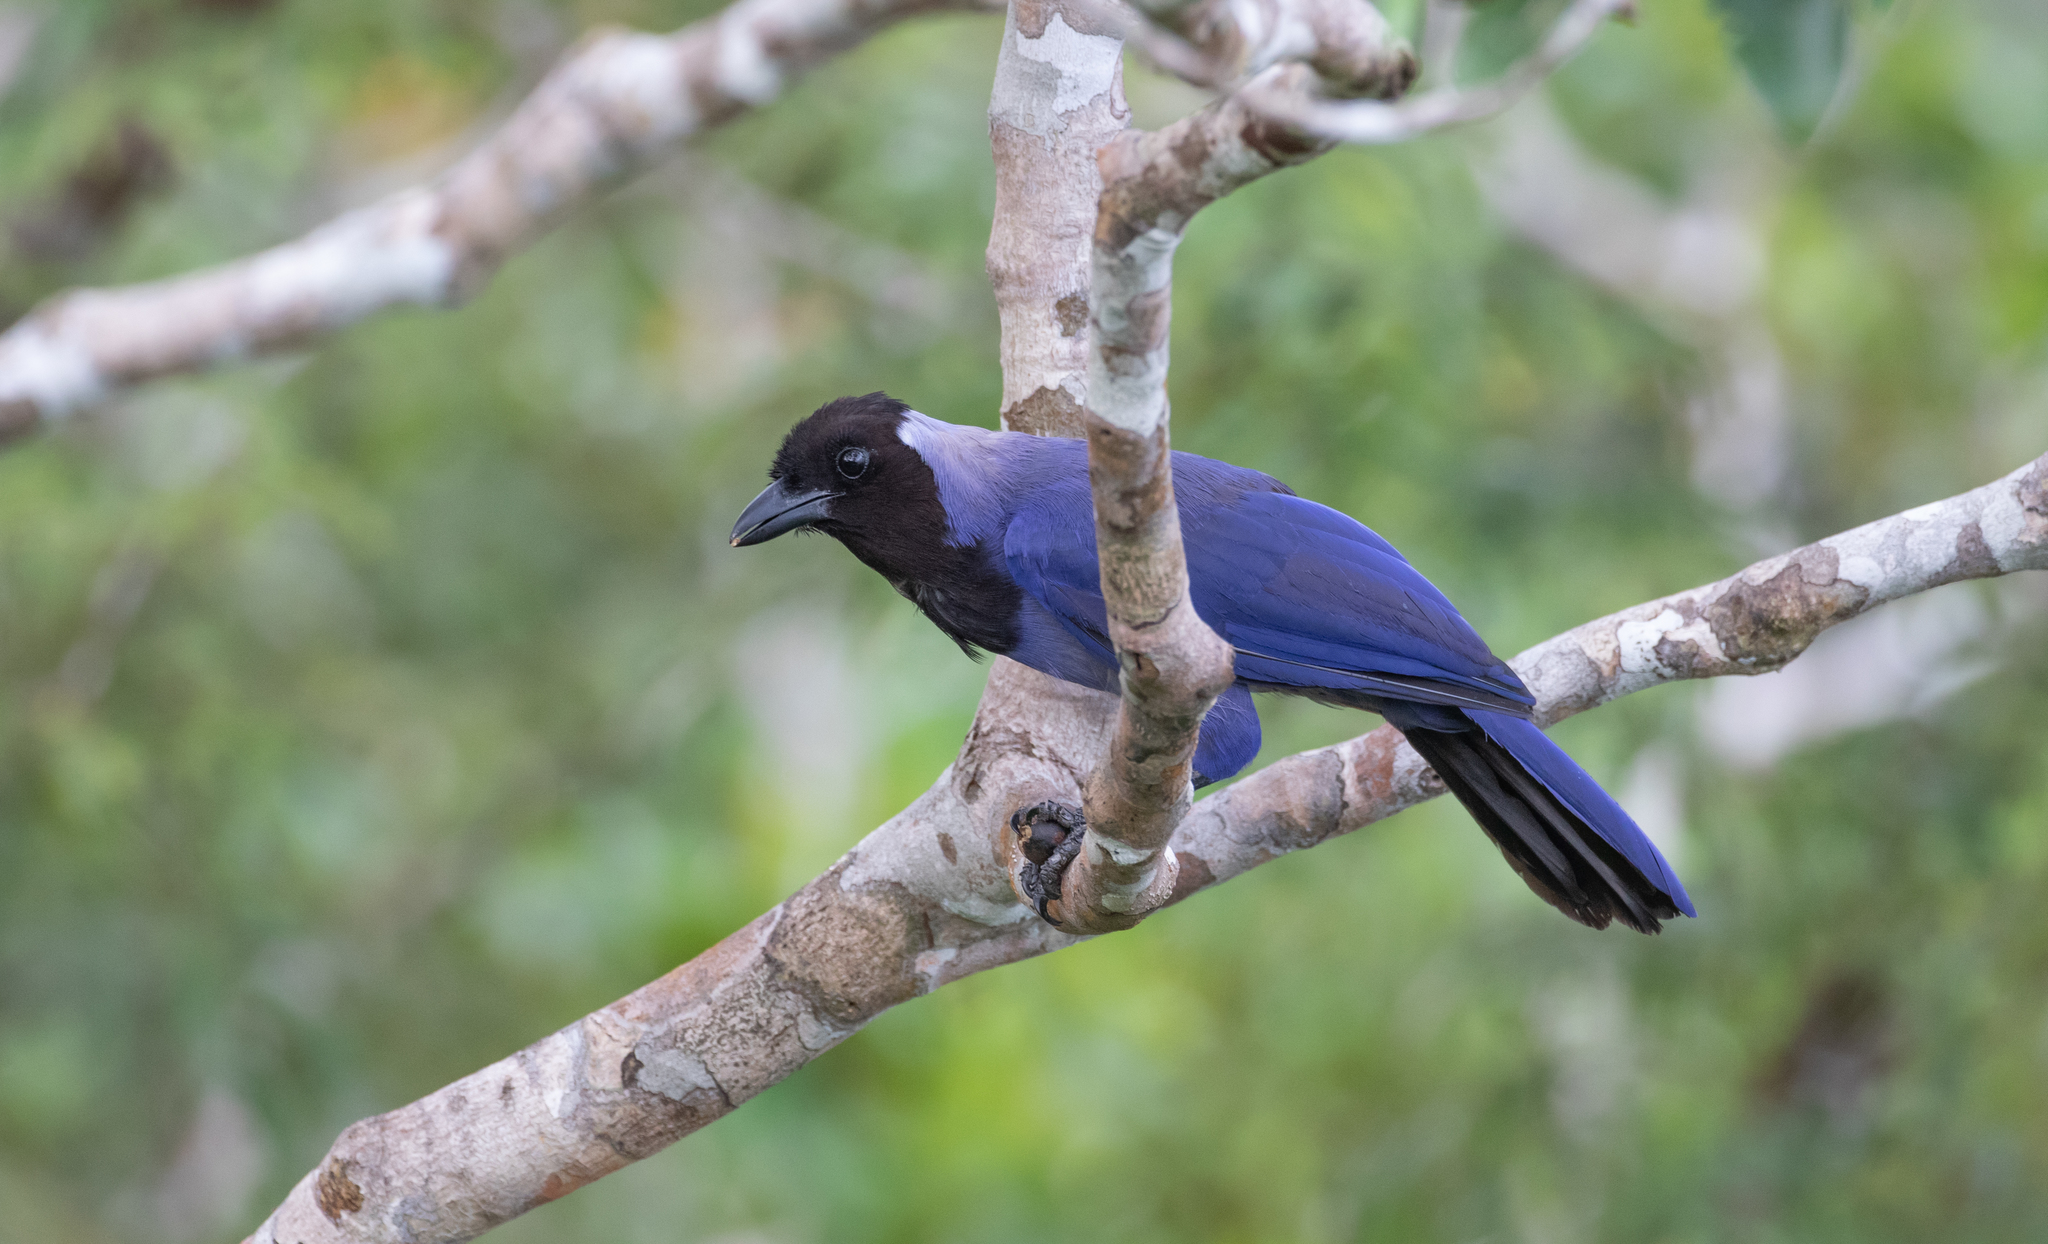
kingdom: Animalia
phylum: Chordata
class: Aves
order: Passeriformes
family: Corvidae
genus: Cyanocorax
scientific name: Cyanocorax violaceus
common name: Violaceous jay
